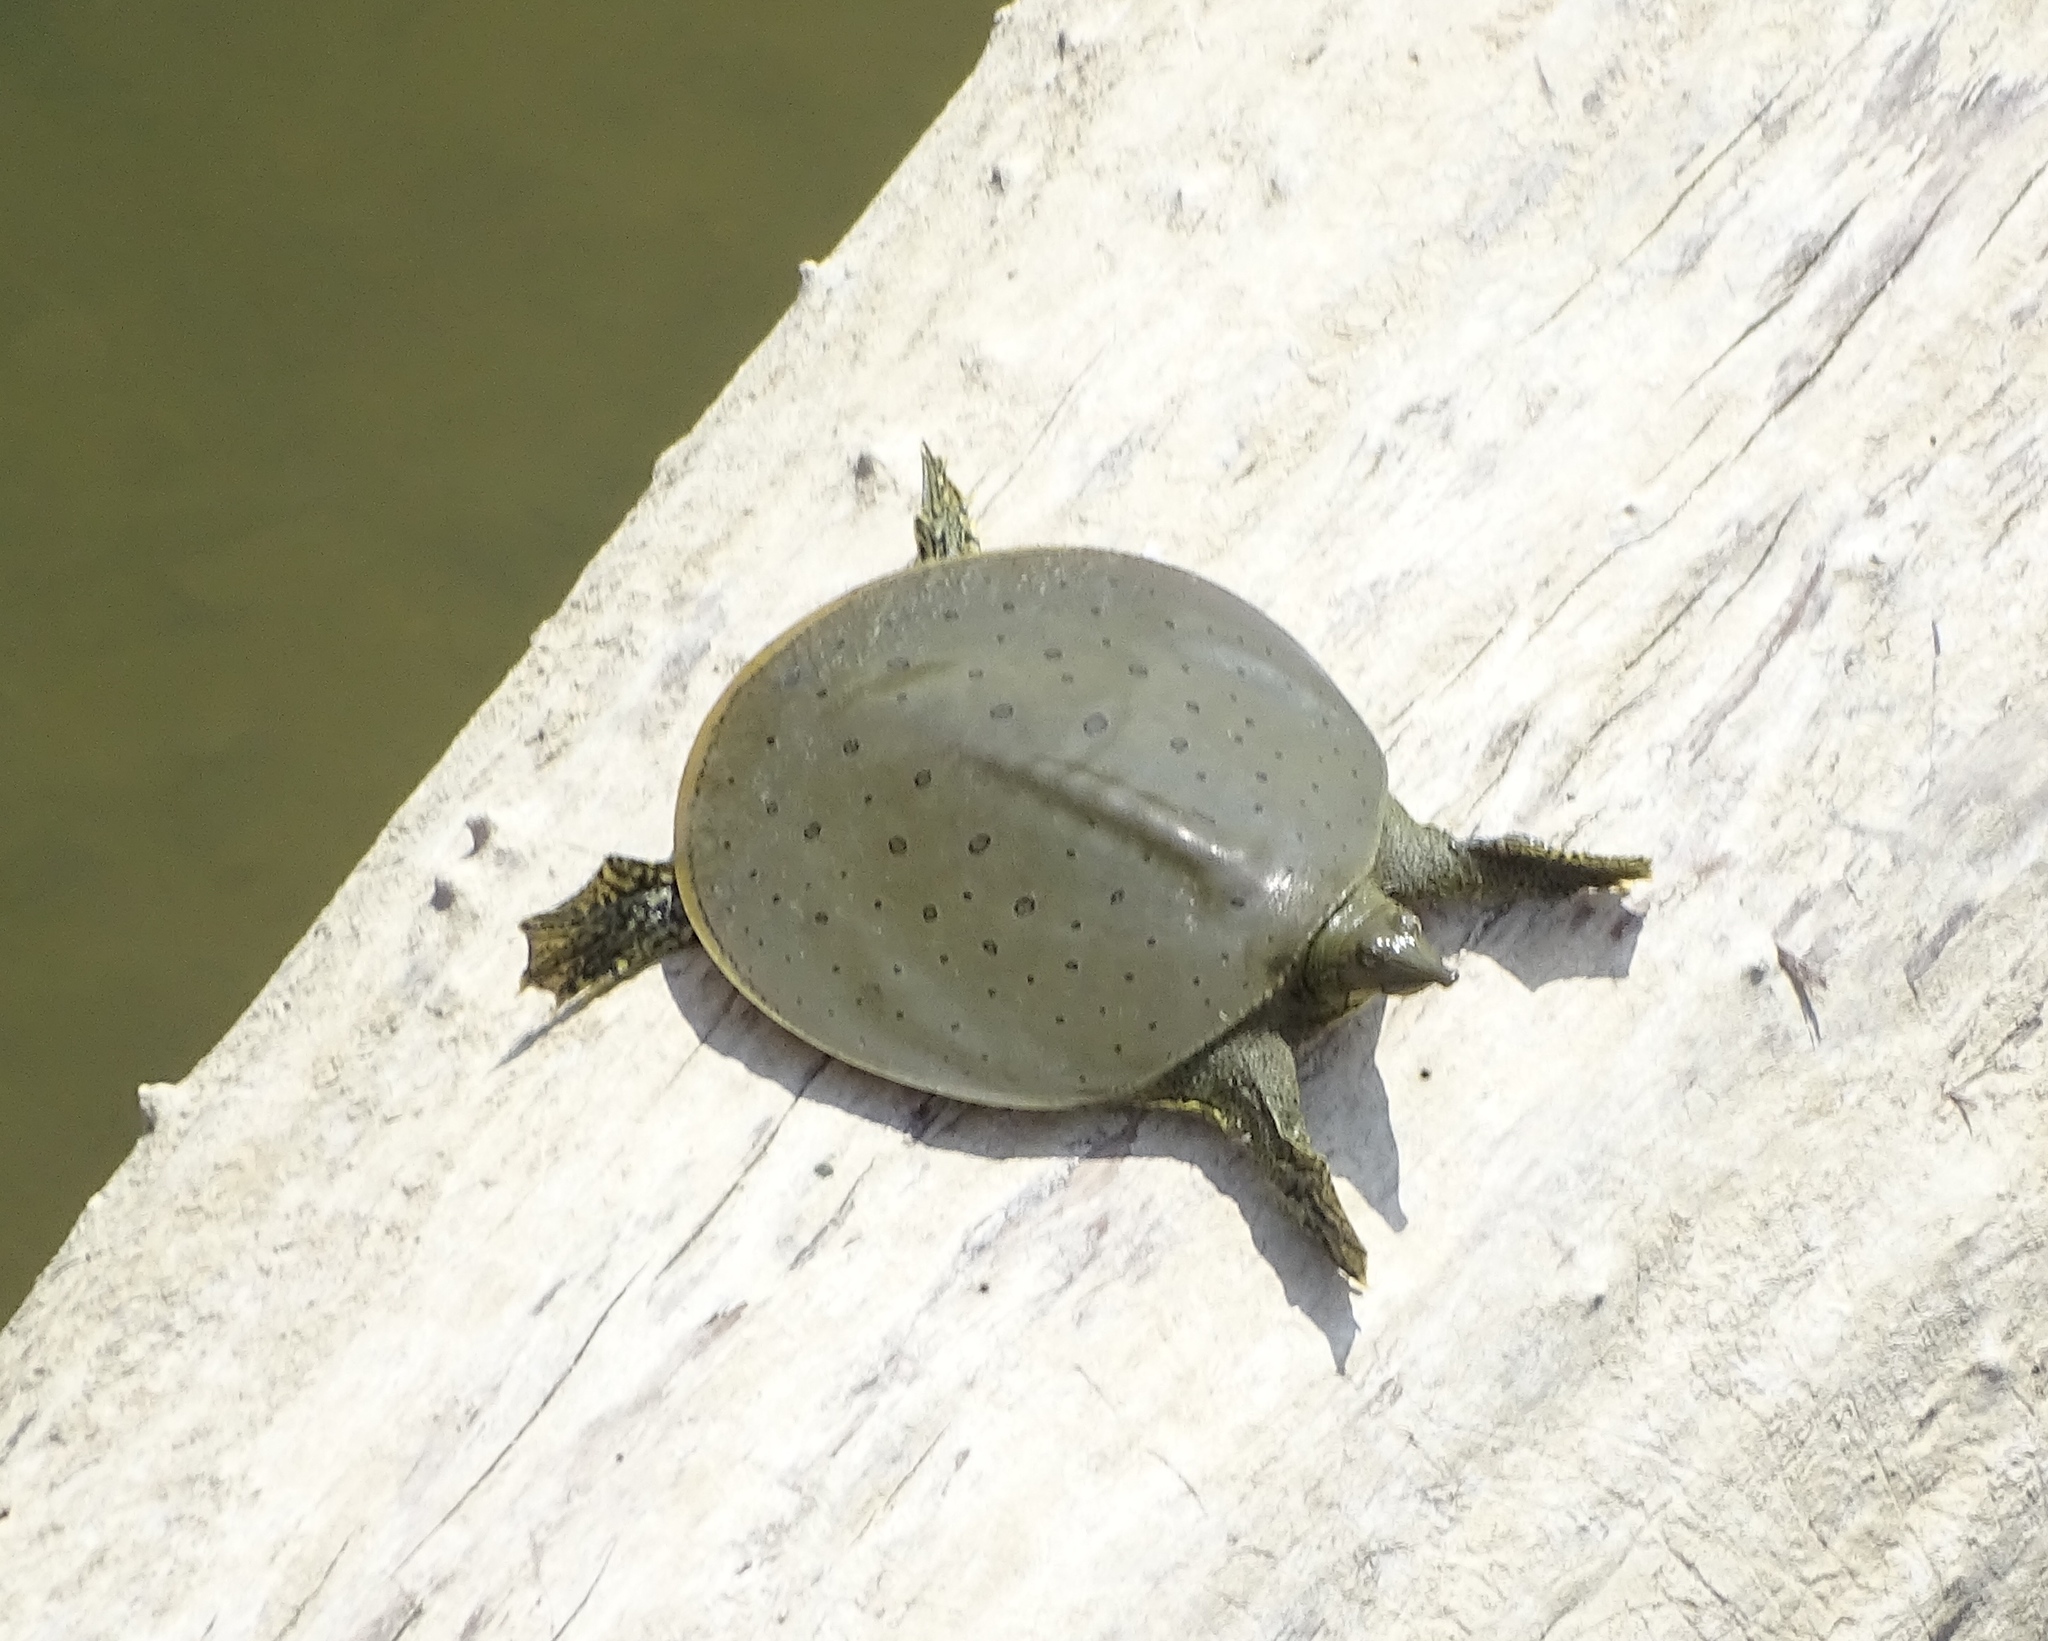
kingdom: Animalia
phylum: Chordata
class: Testudines
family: Trionychidae
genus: Apalone
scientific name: Apalone spinifera
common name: Spiny softshell turtle
